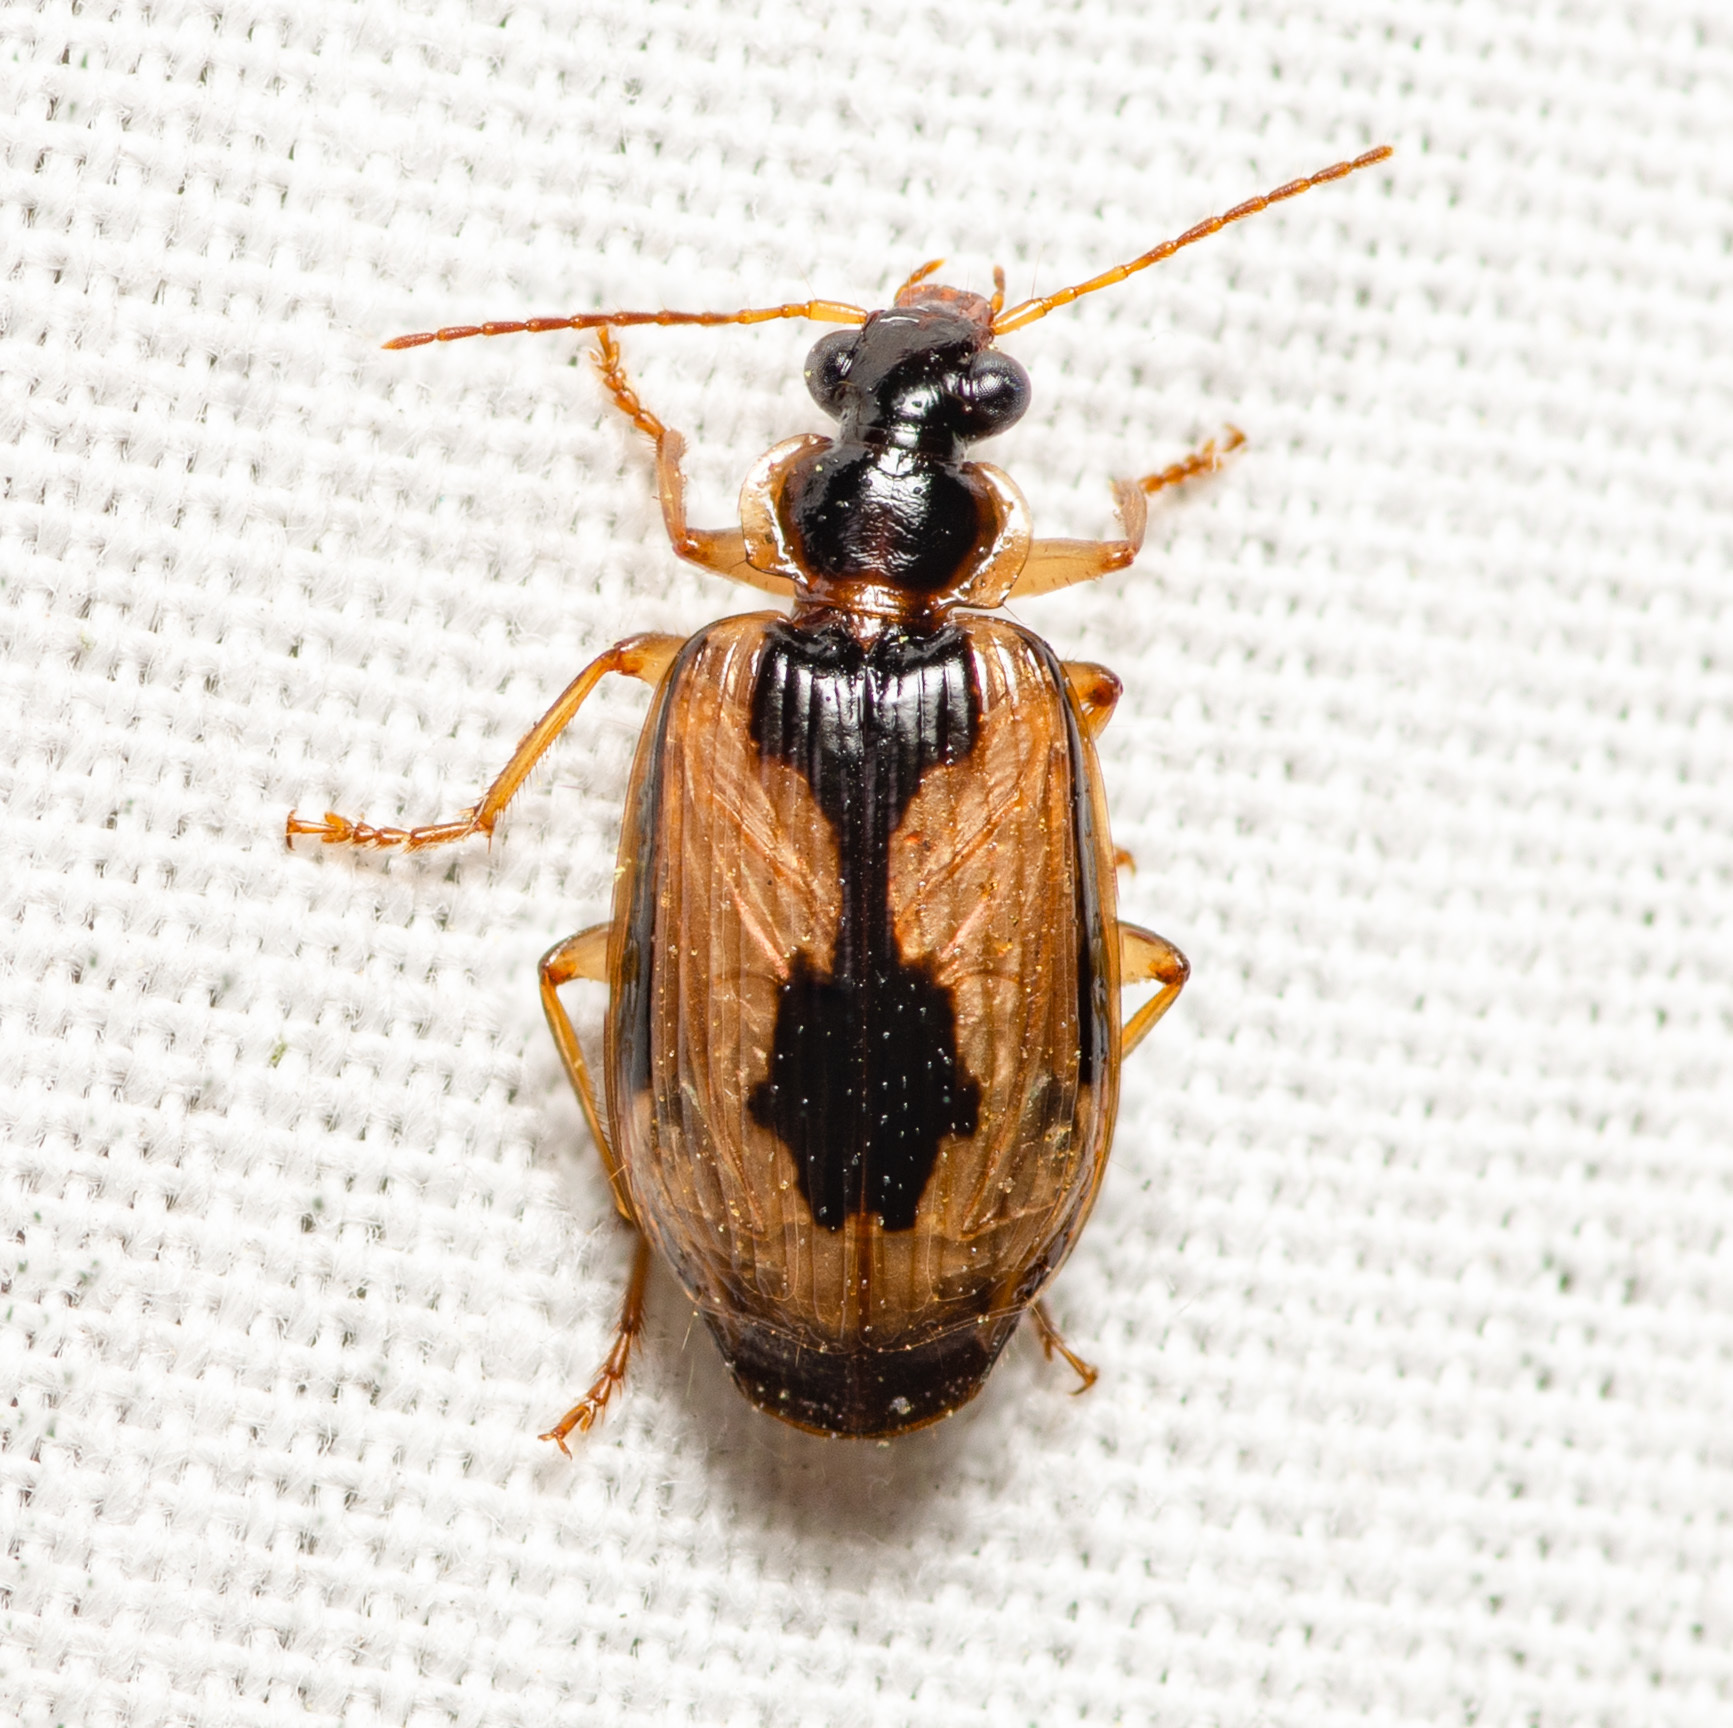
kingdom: Animalia
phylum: Arthropoda
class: Insecta
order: Coleoptera
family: Carabidae
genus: Lebia
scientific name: Lebia fuscata
